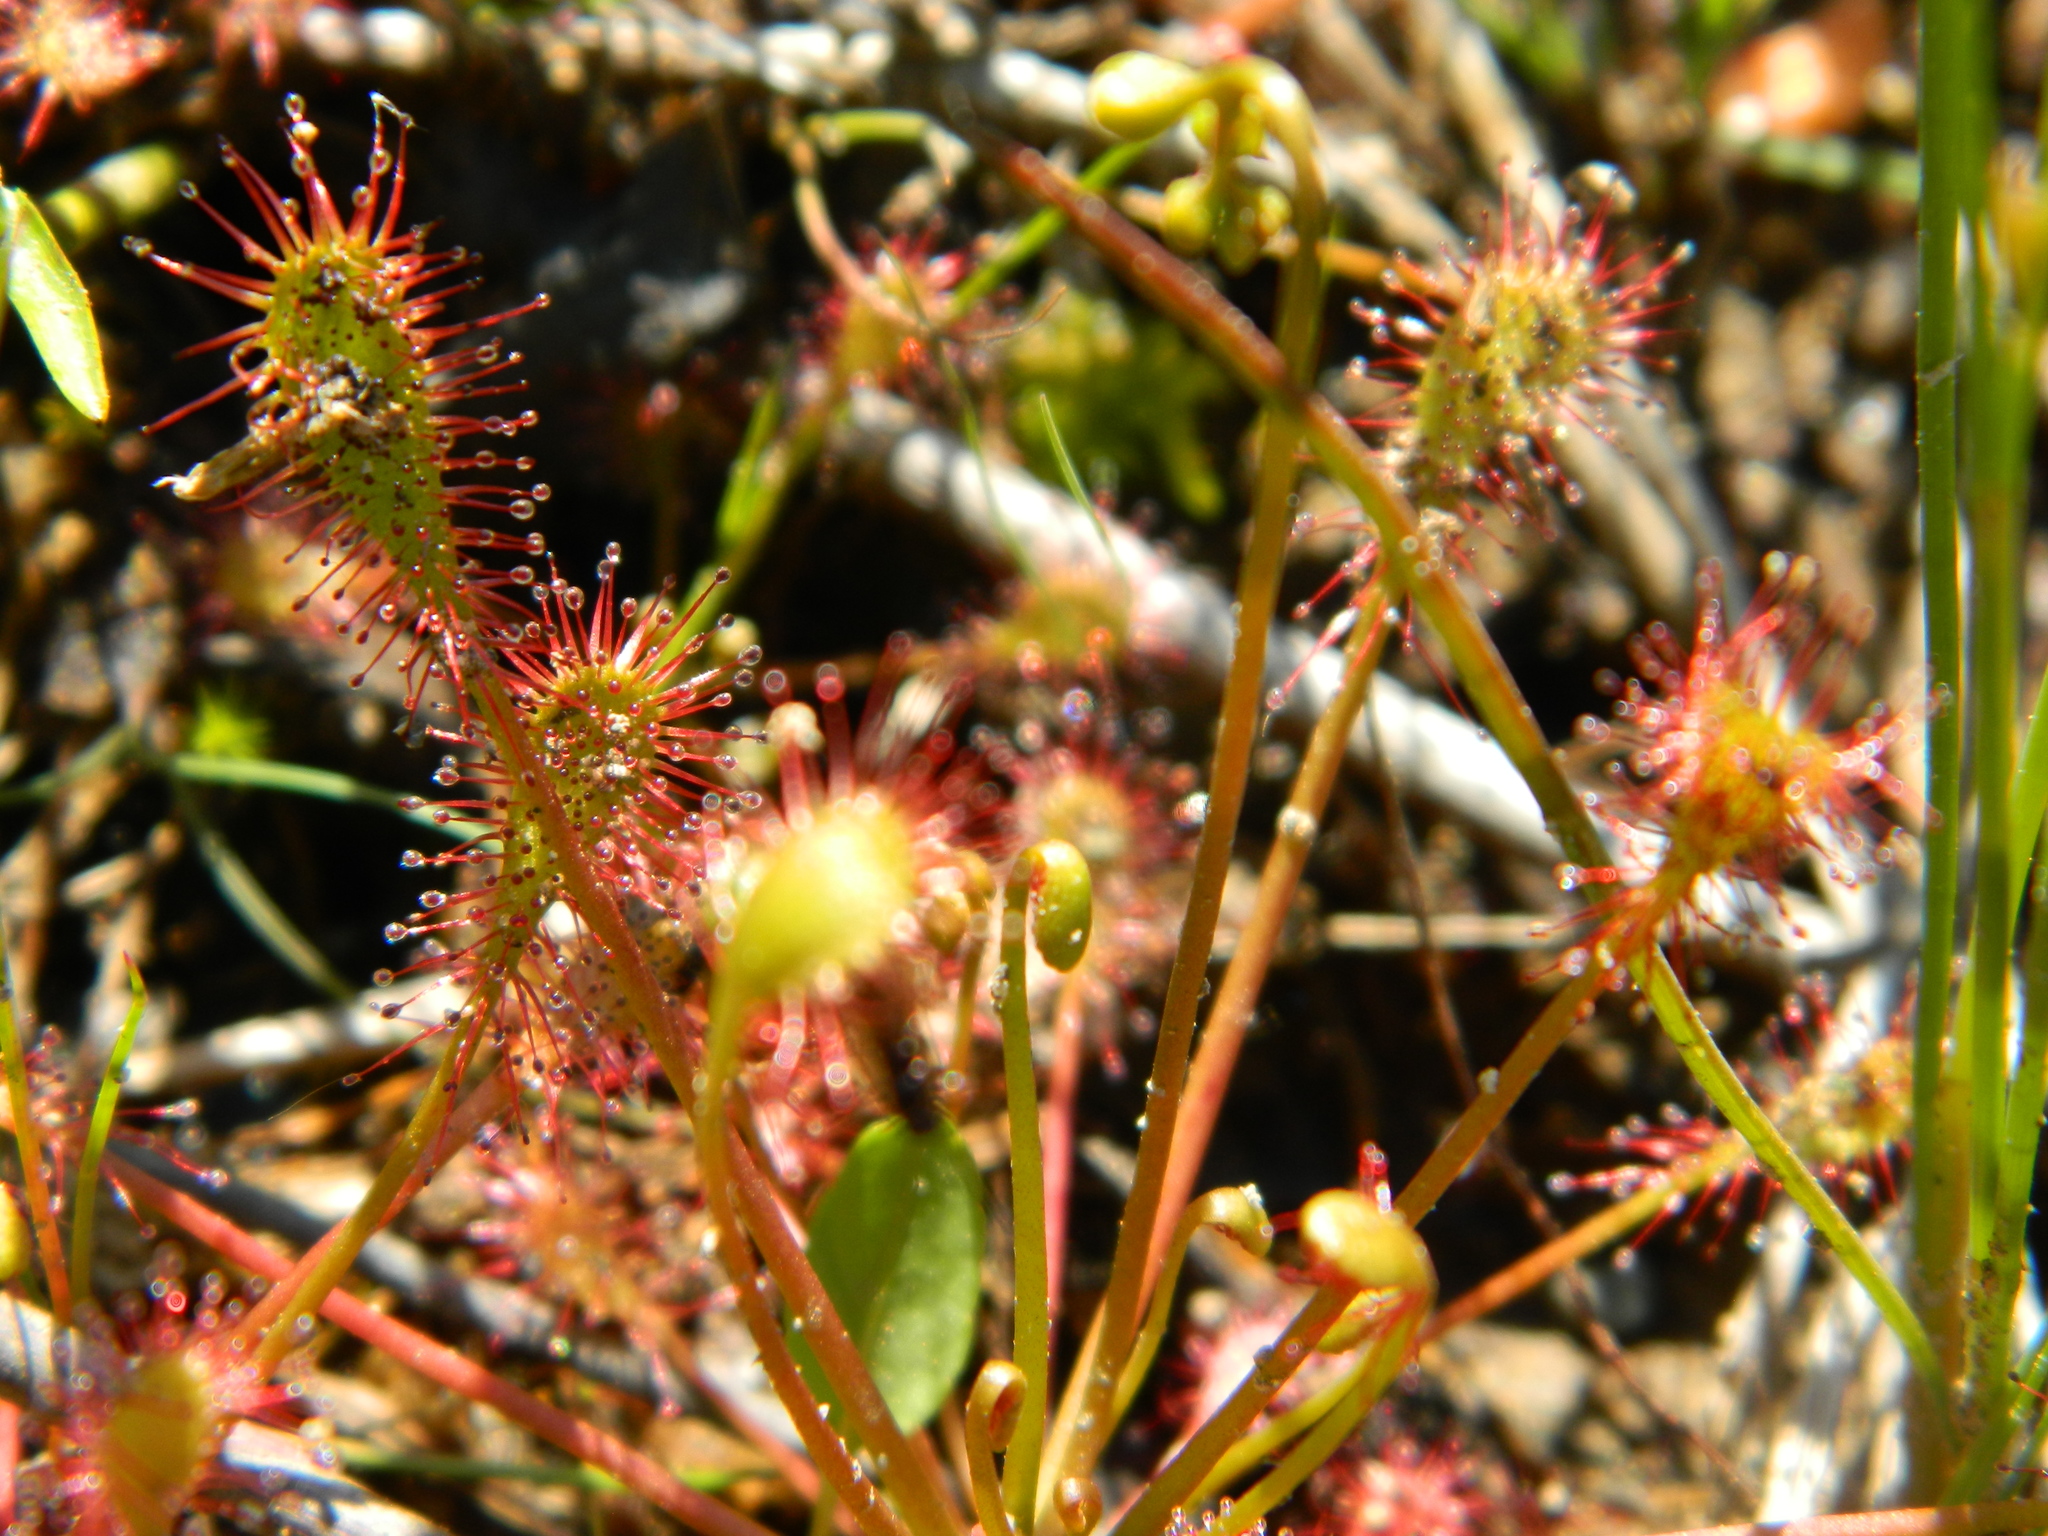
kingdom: Plantae
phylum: Tracheophyta
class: Magnoliopsida
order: Caryophyllales
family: Droseraceae
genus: Drosera
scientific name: Drosera intermedia
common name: Oblong-leaved sundew
